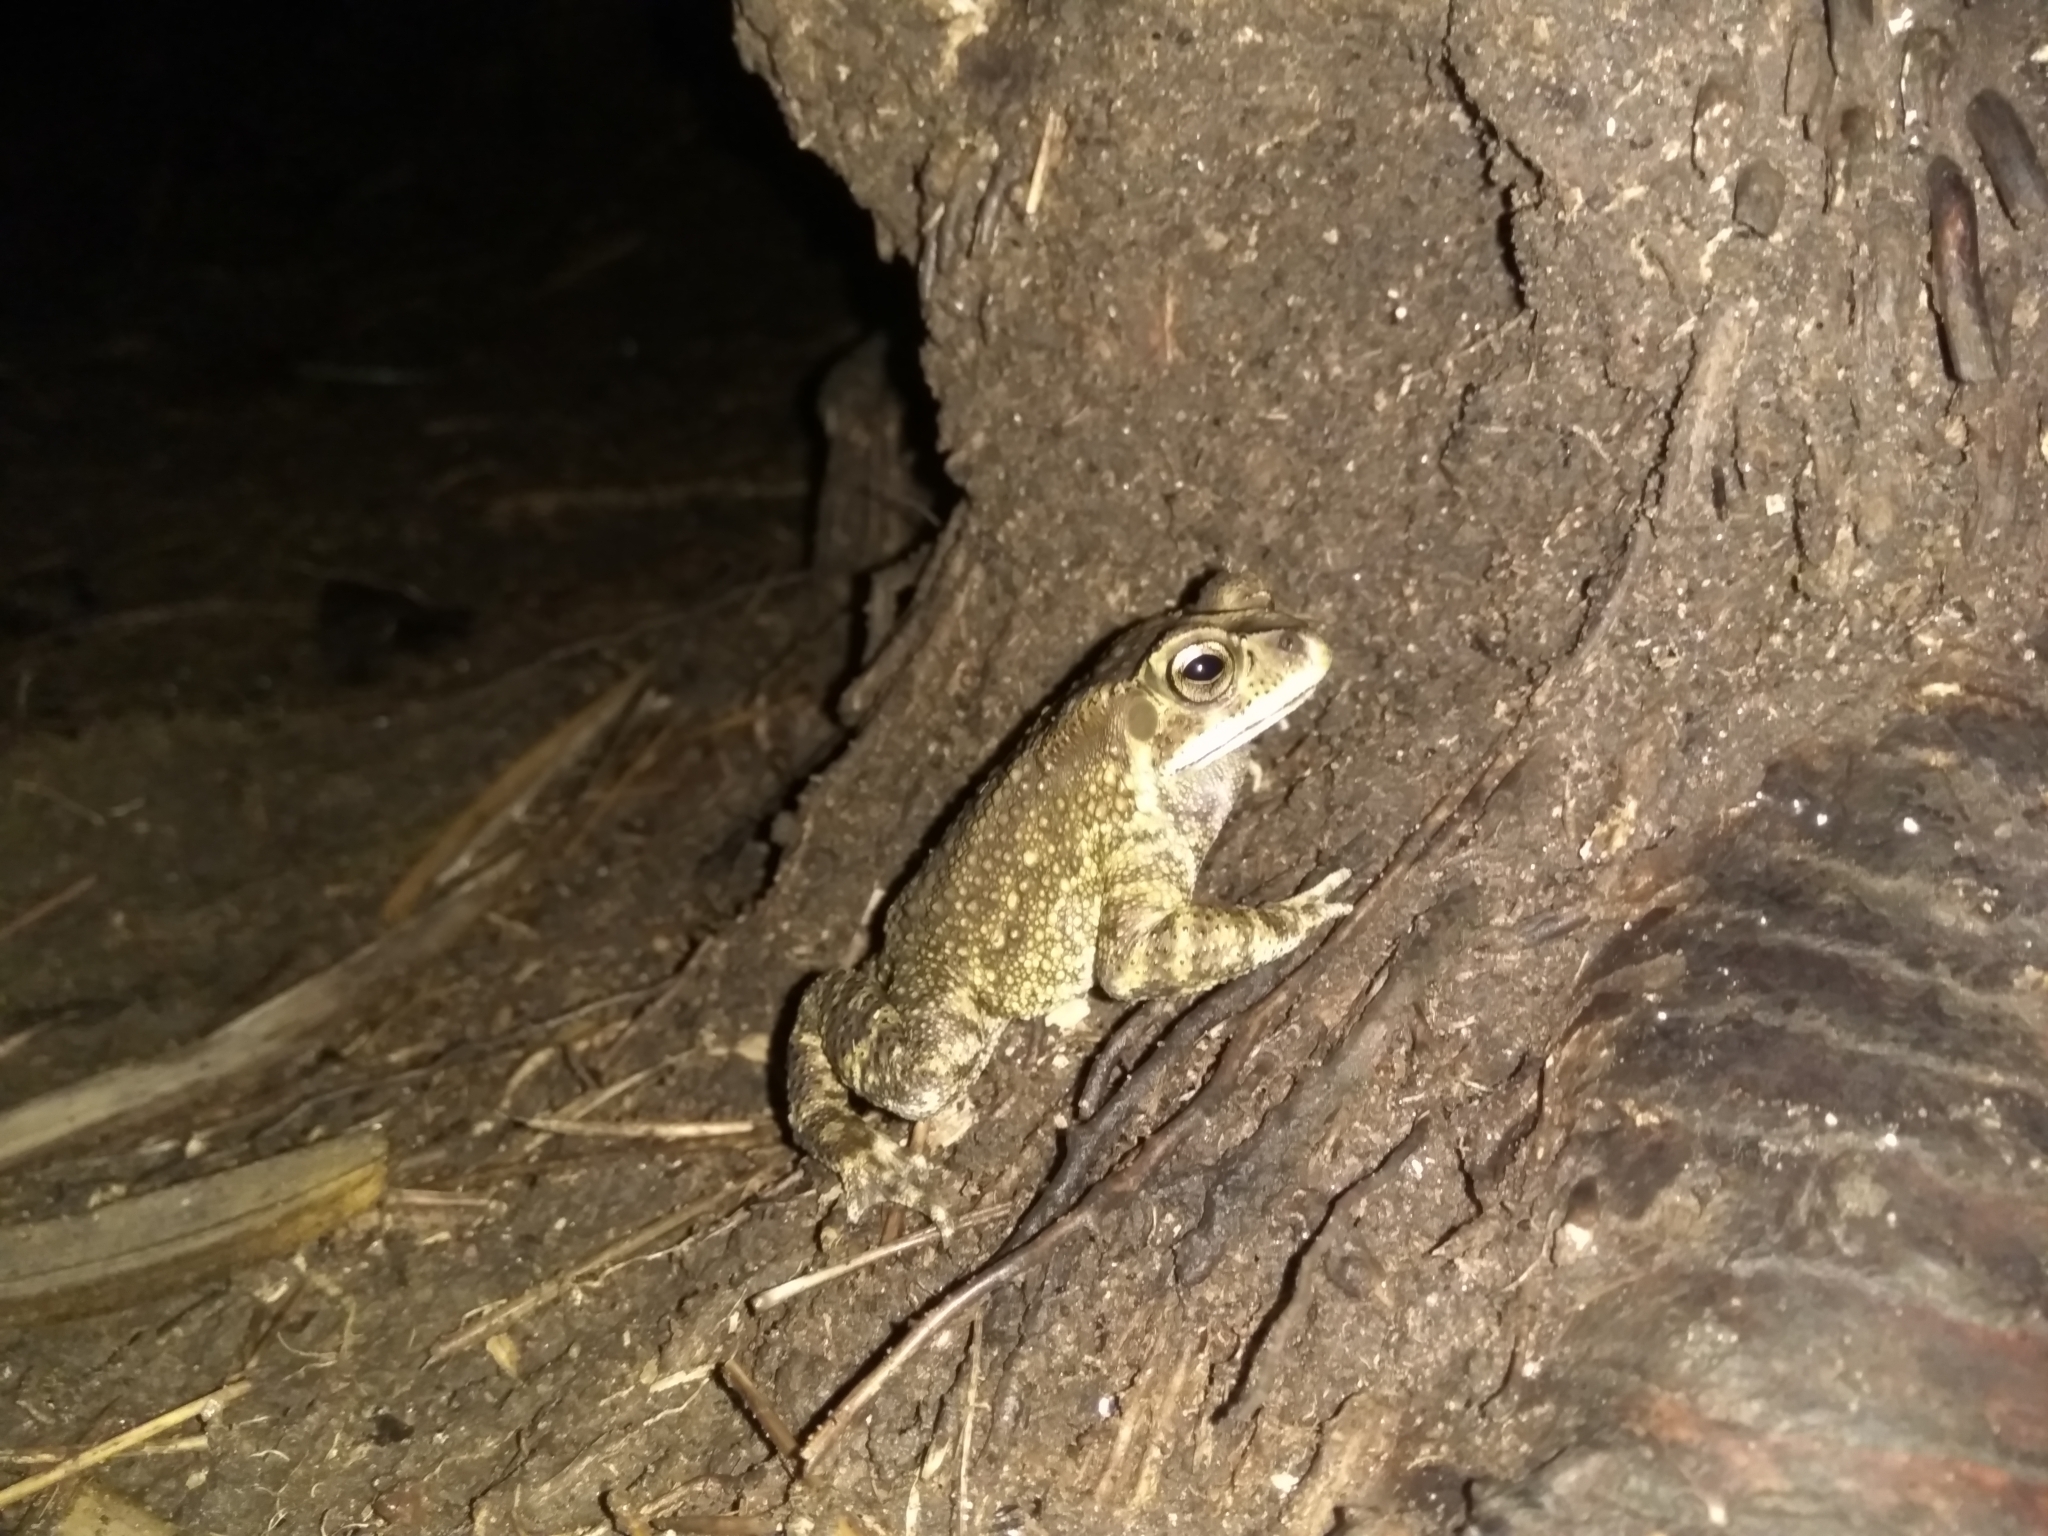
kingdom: Animalia
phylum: Chordata
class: Amphibia
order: Anura
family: Bufonidae
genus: Duttaphrynus
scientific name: Duttaphrynus melanostictus
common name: Common sunda toad
